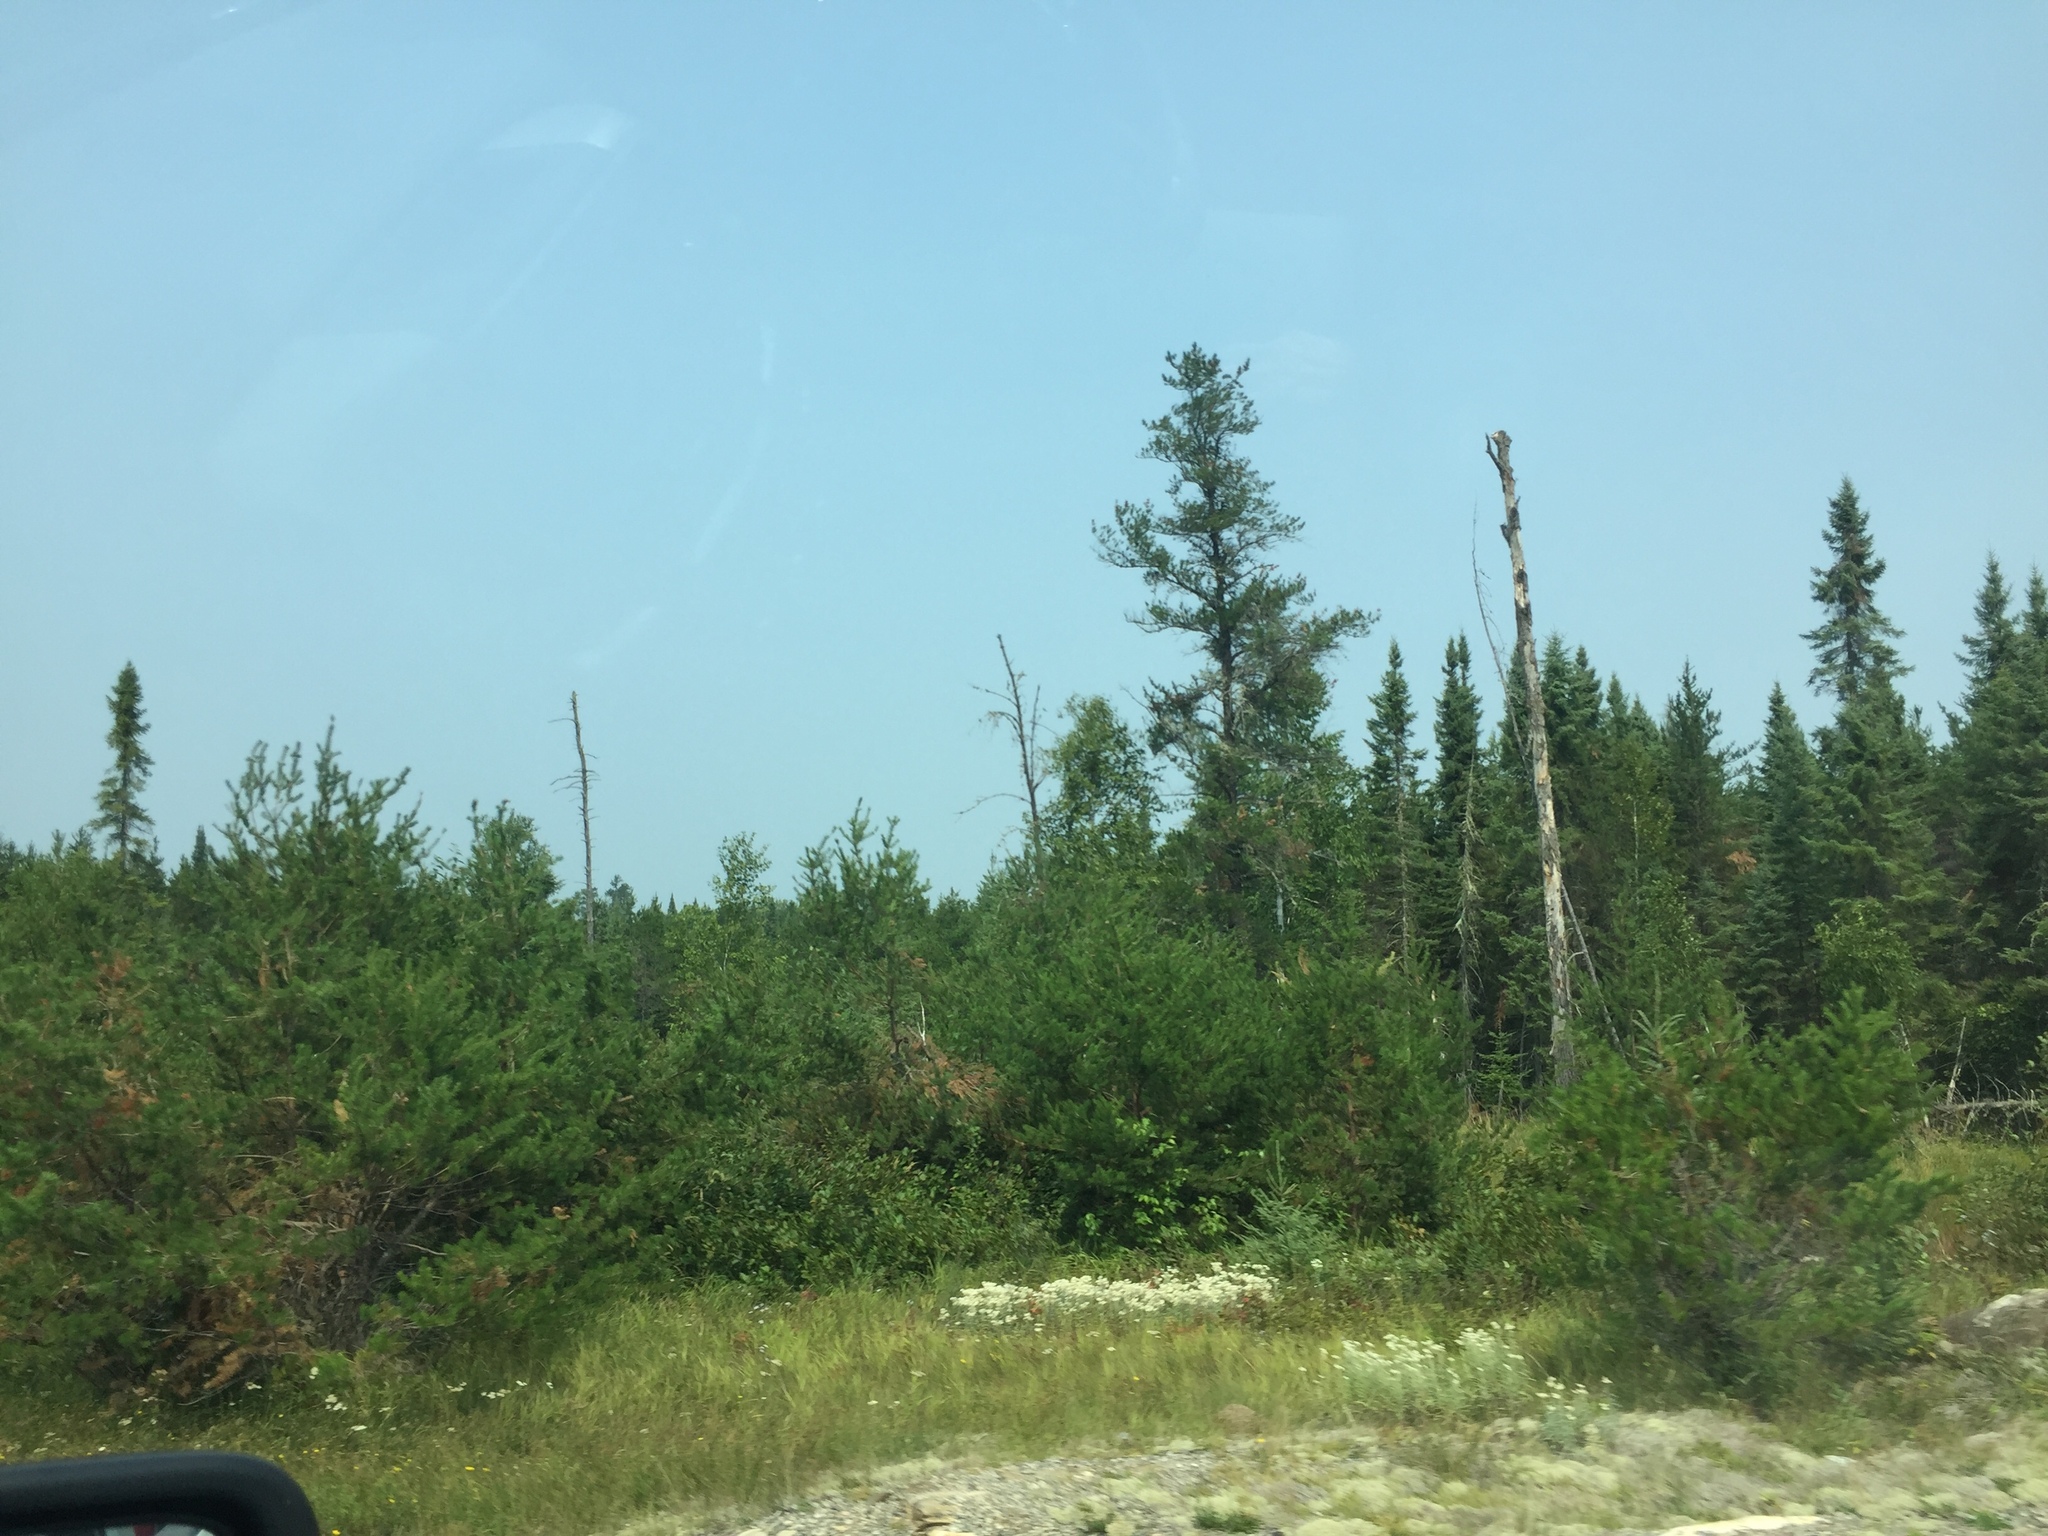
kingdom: Plantae
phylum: Tracheophyta
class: Pinopsida
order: Pinales
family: Pinaceae
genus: Pinus
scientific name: Pinus banksiana
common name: Jack pine
